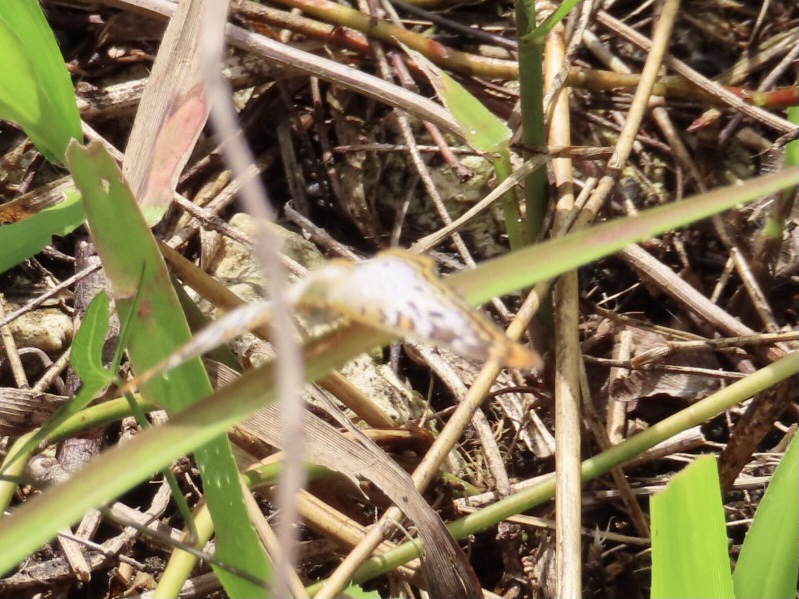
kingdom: Animalia
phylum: Arthropoda
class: Insecta
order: Lepidoptera
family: Nymphalidae
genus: Anartia
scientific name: Anartia jatrophae
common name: White peacock
